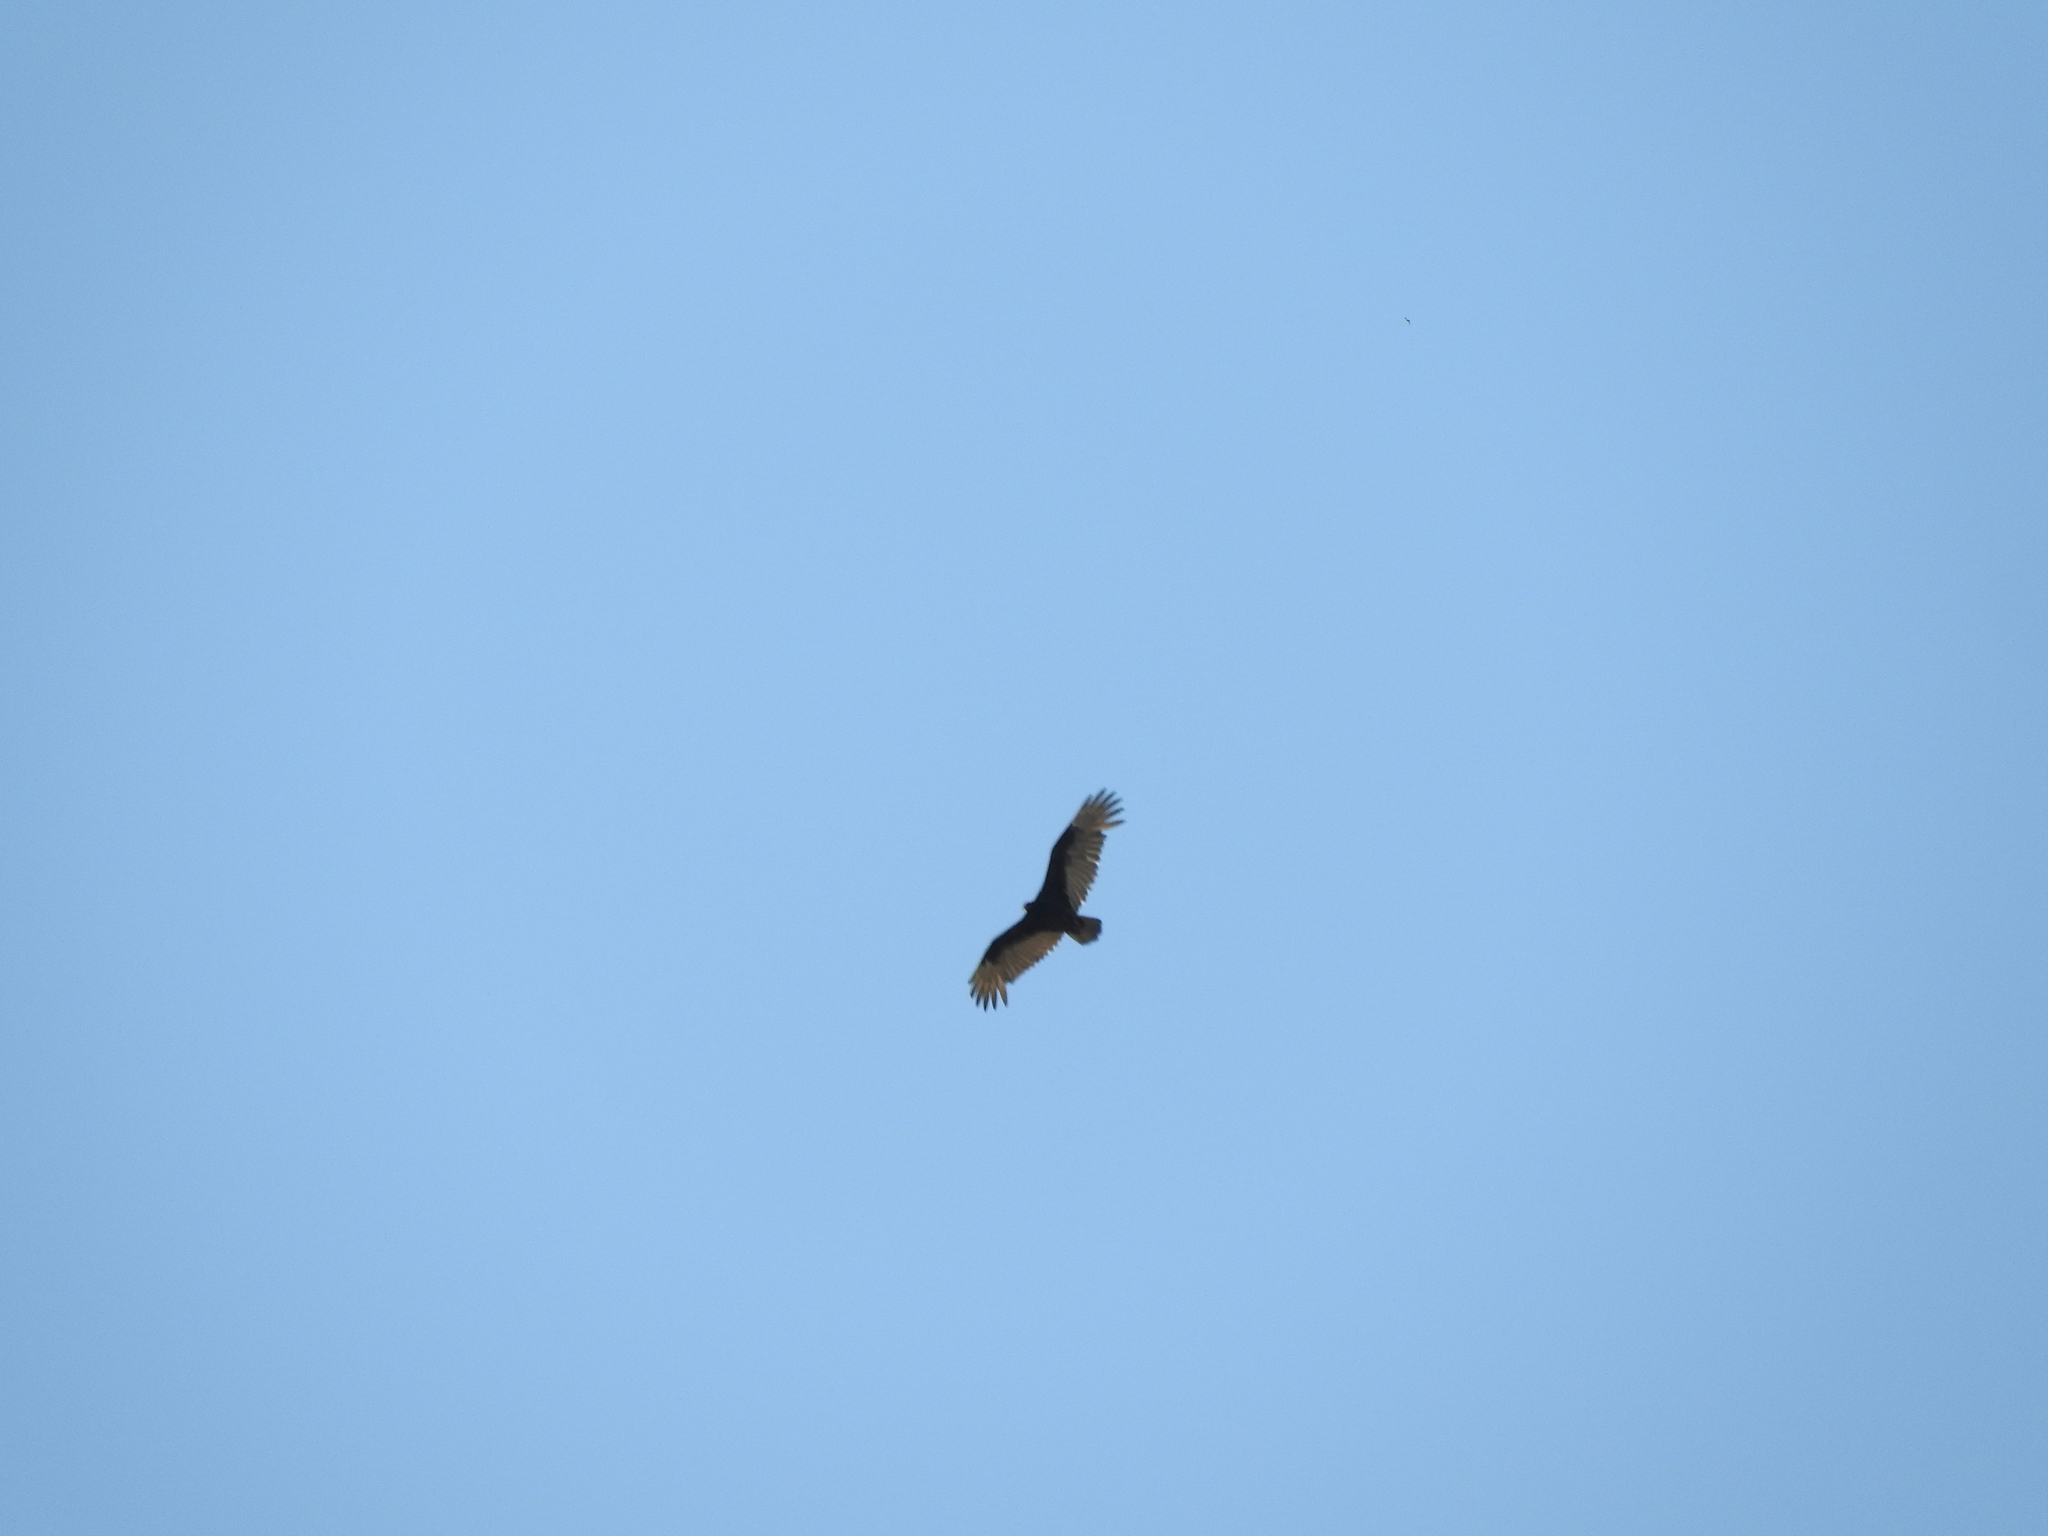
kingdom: Animalia
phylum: Chordata
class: Aves
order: Accipitriformes
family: Cathartidae
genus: Cathartes
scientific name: Cathartes aura
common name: Turkey vulture
